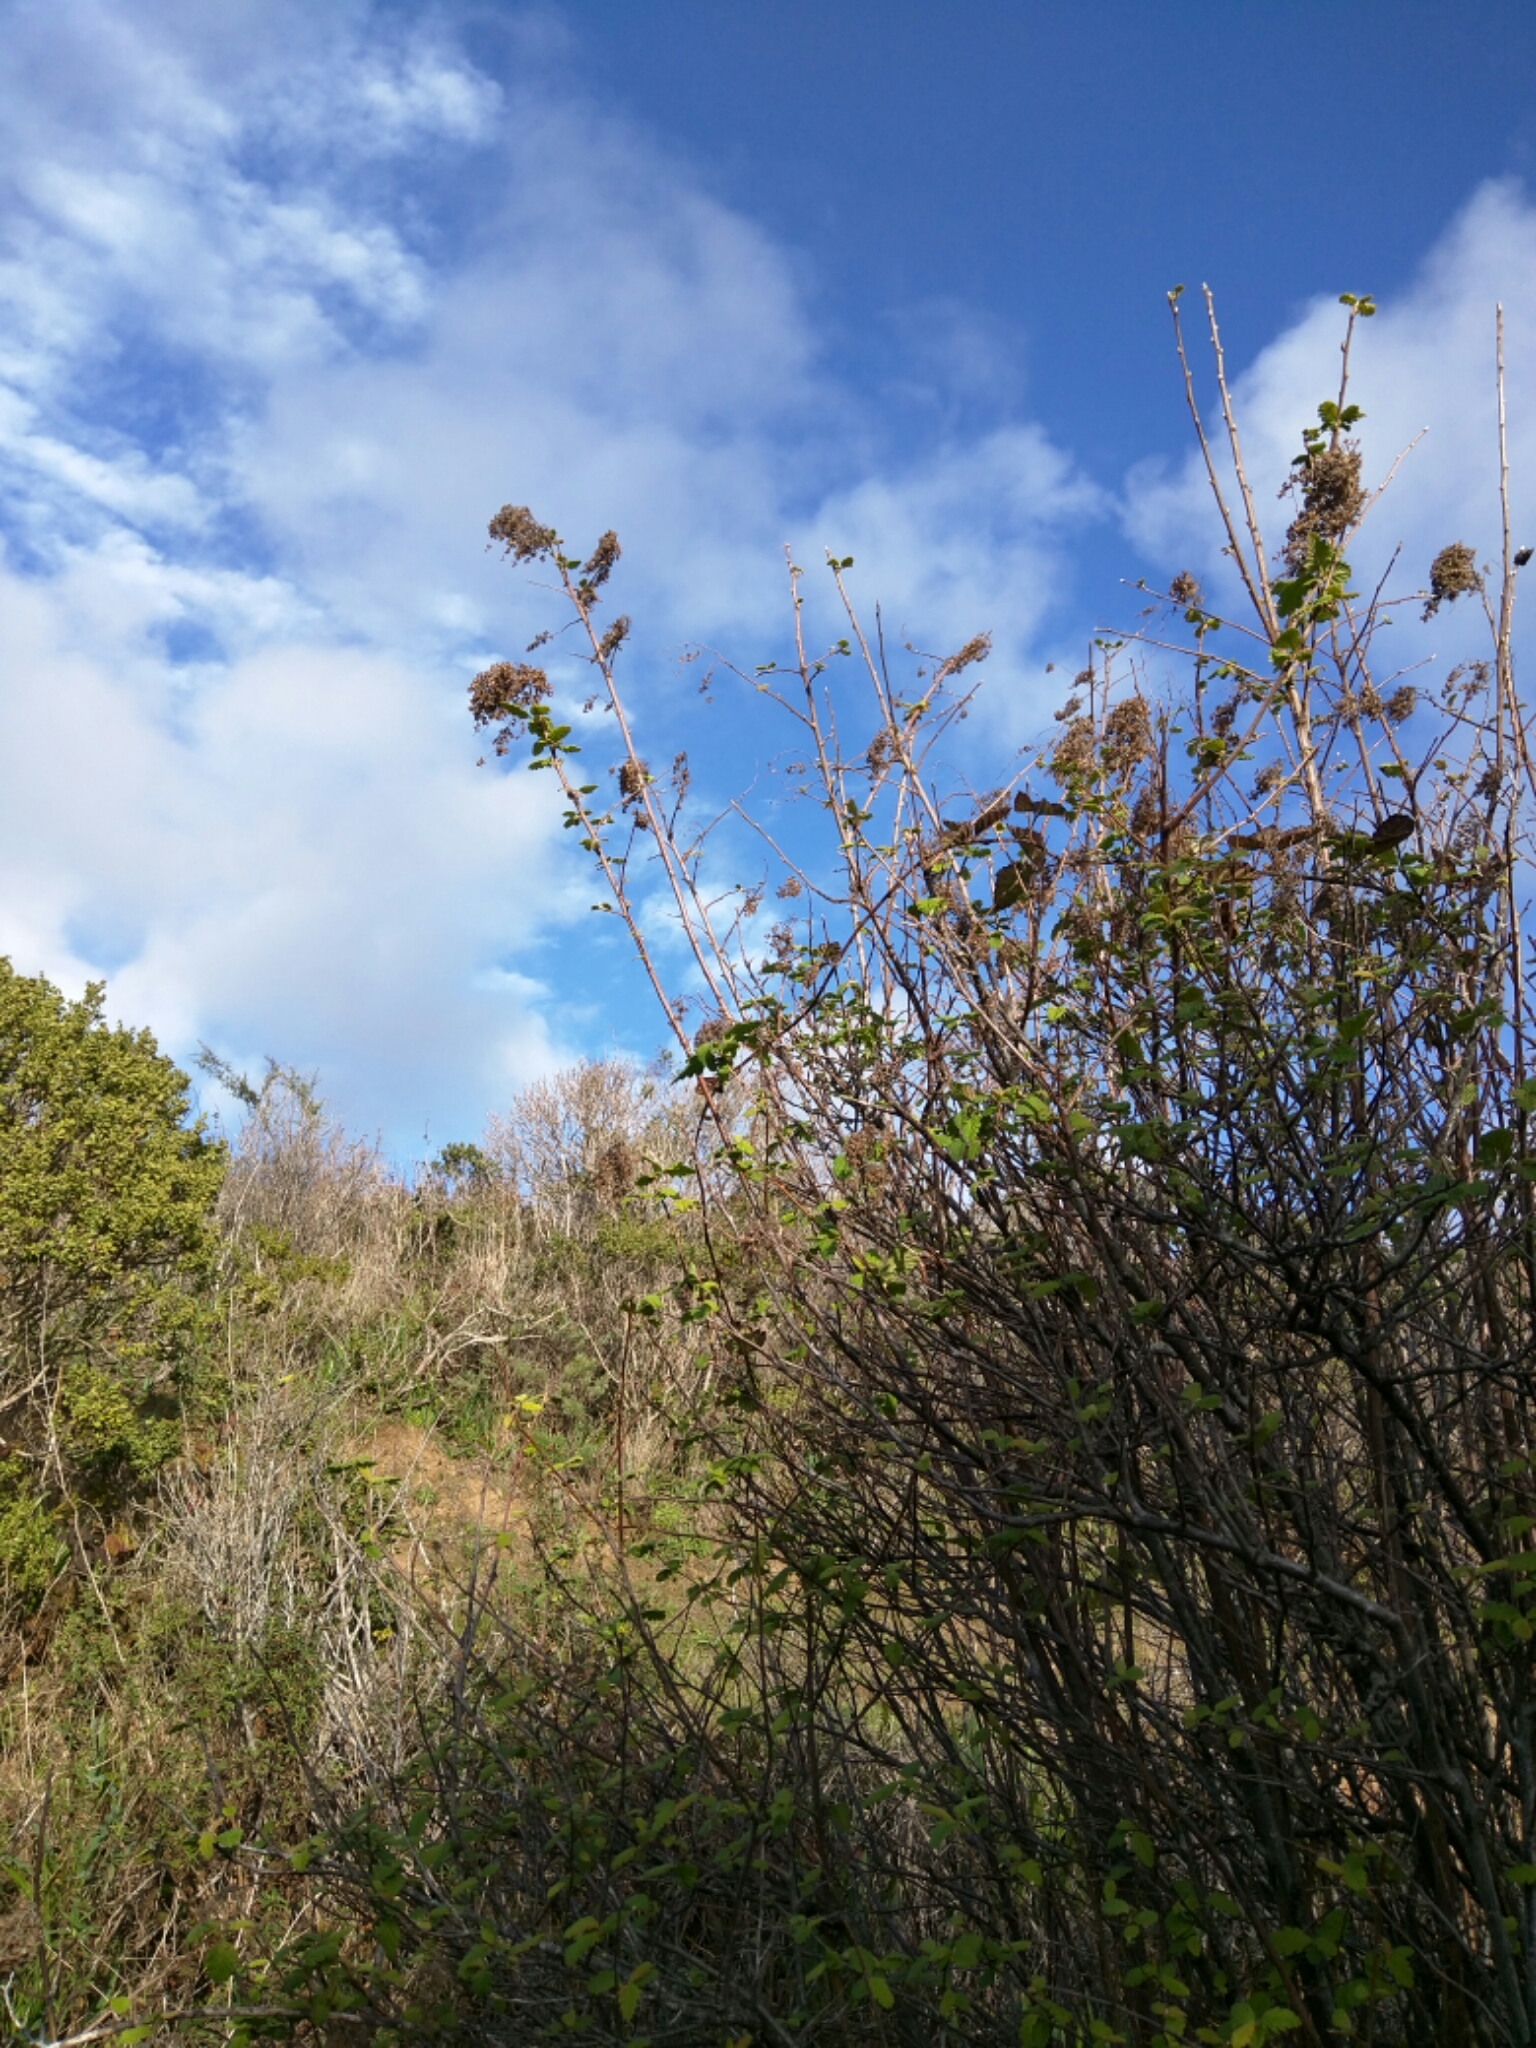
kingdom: Plantae
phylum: Tracheophyta
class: Magnoliopsida
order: Rosales
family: Rosaceae
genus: Holodiscus
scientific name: Holodiscus discolor
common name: Oceanspray
